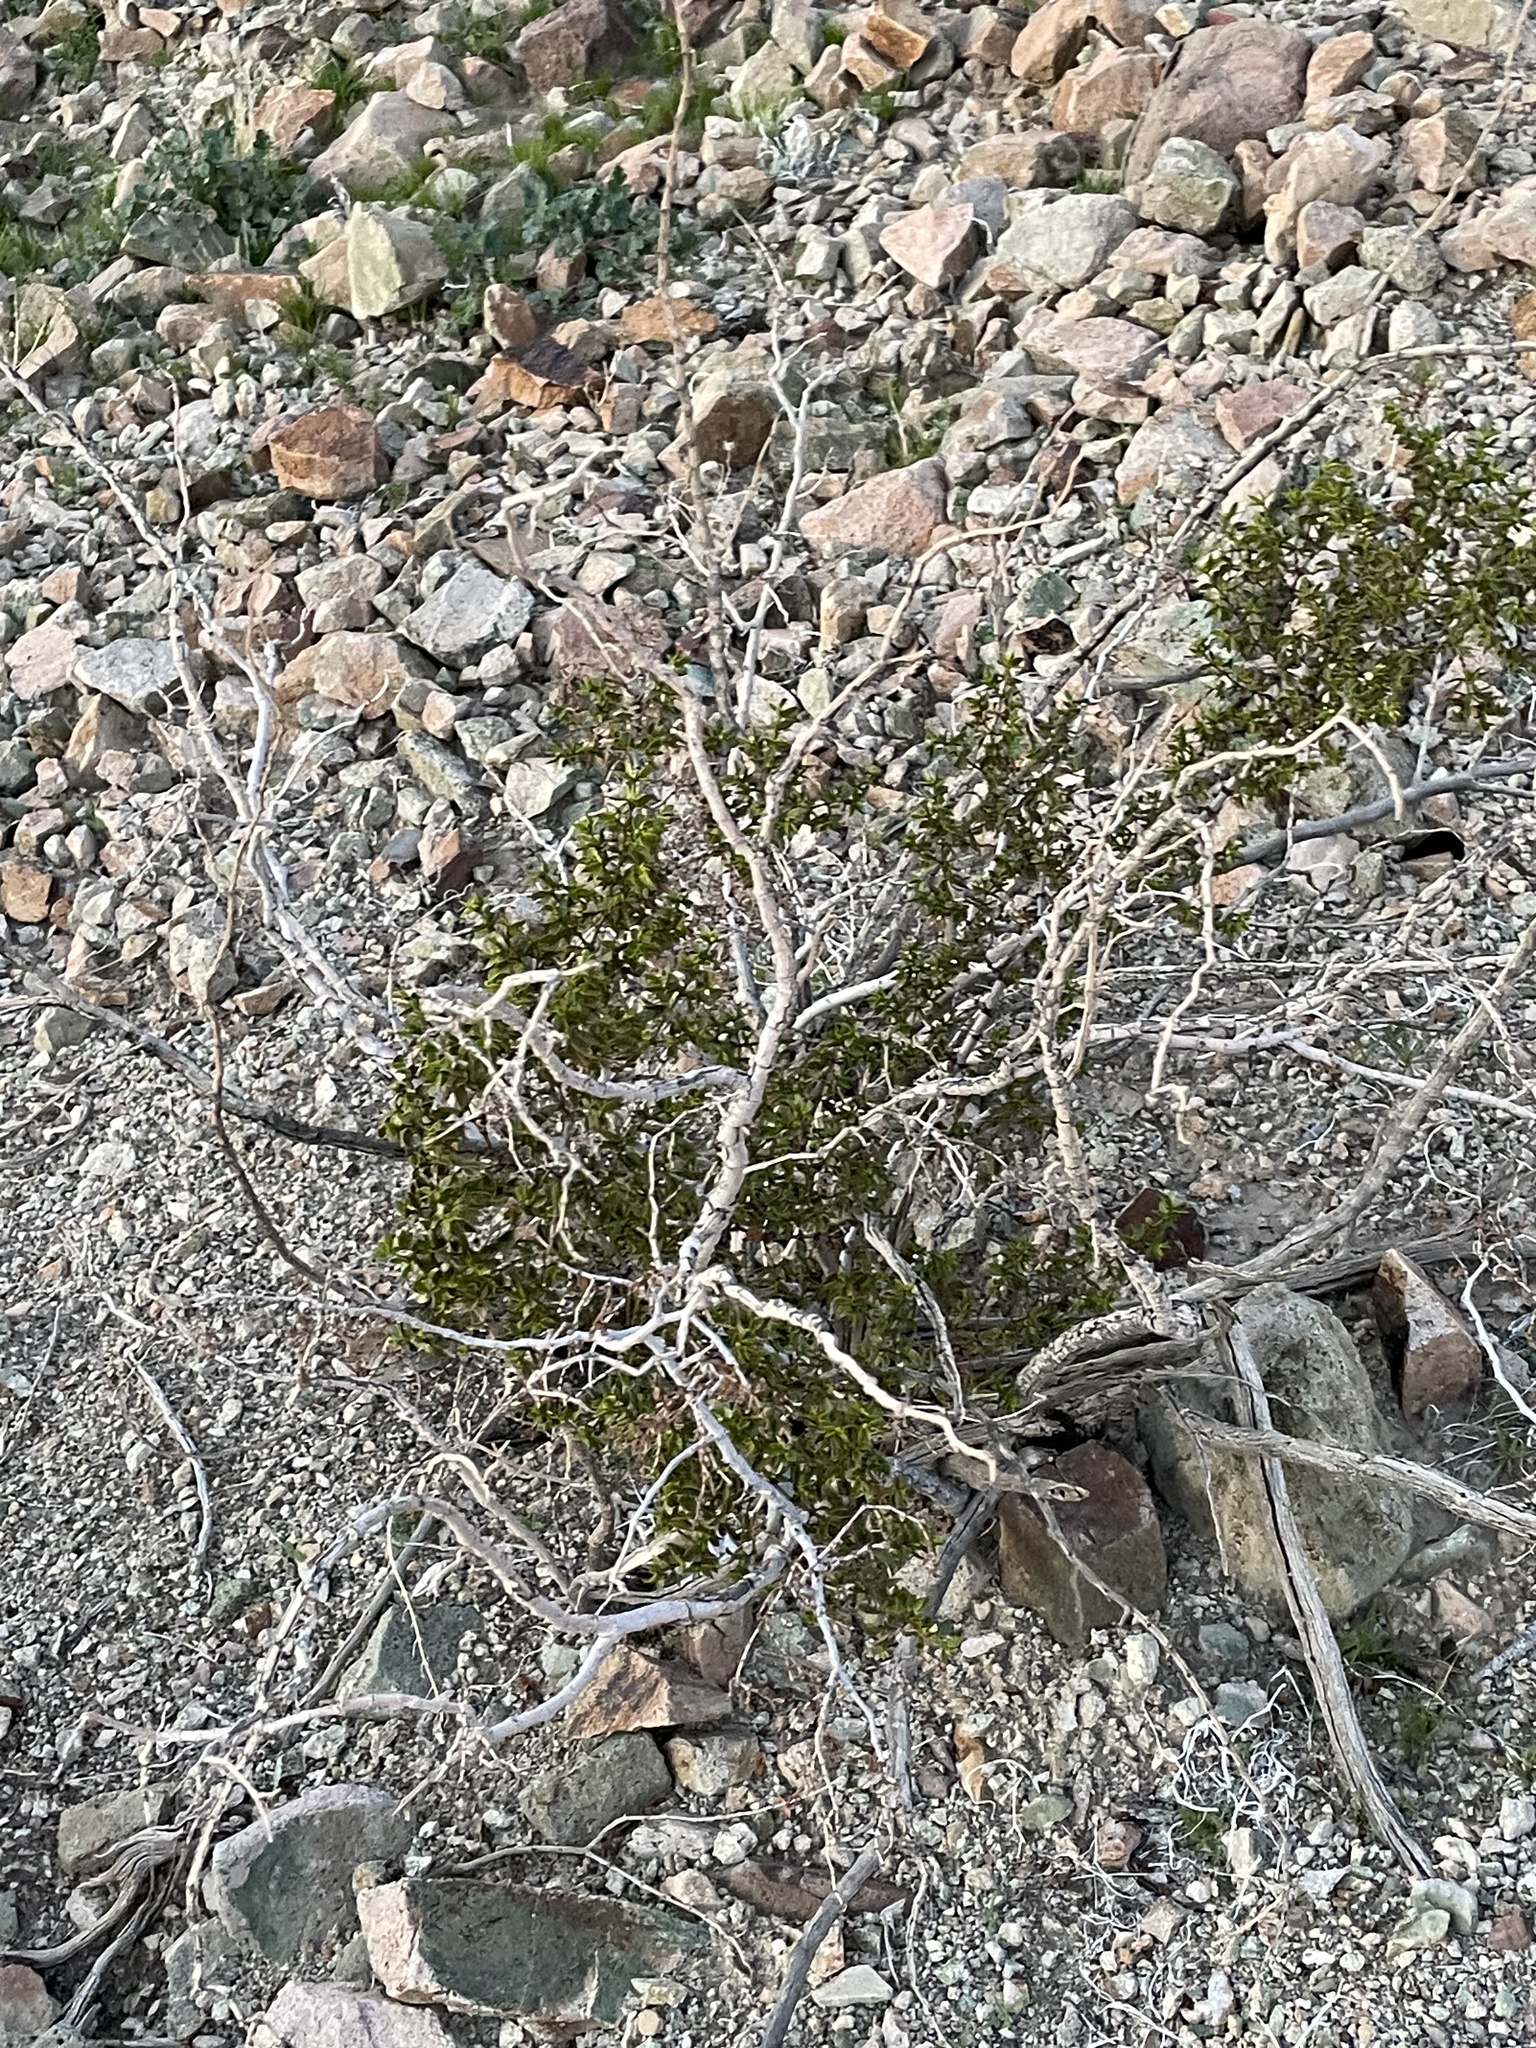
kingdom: Plantae
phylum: Tracheophyta
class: Magnoliopsida
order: Zygophyllales
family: Zygophyllaceae
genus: Larrea
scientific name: Larrea tridentata
